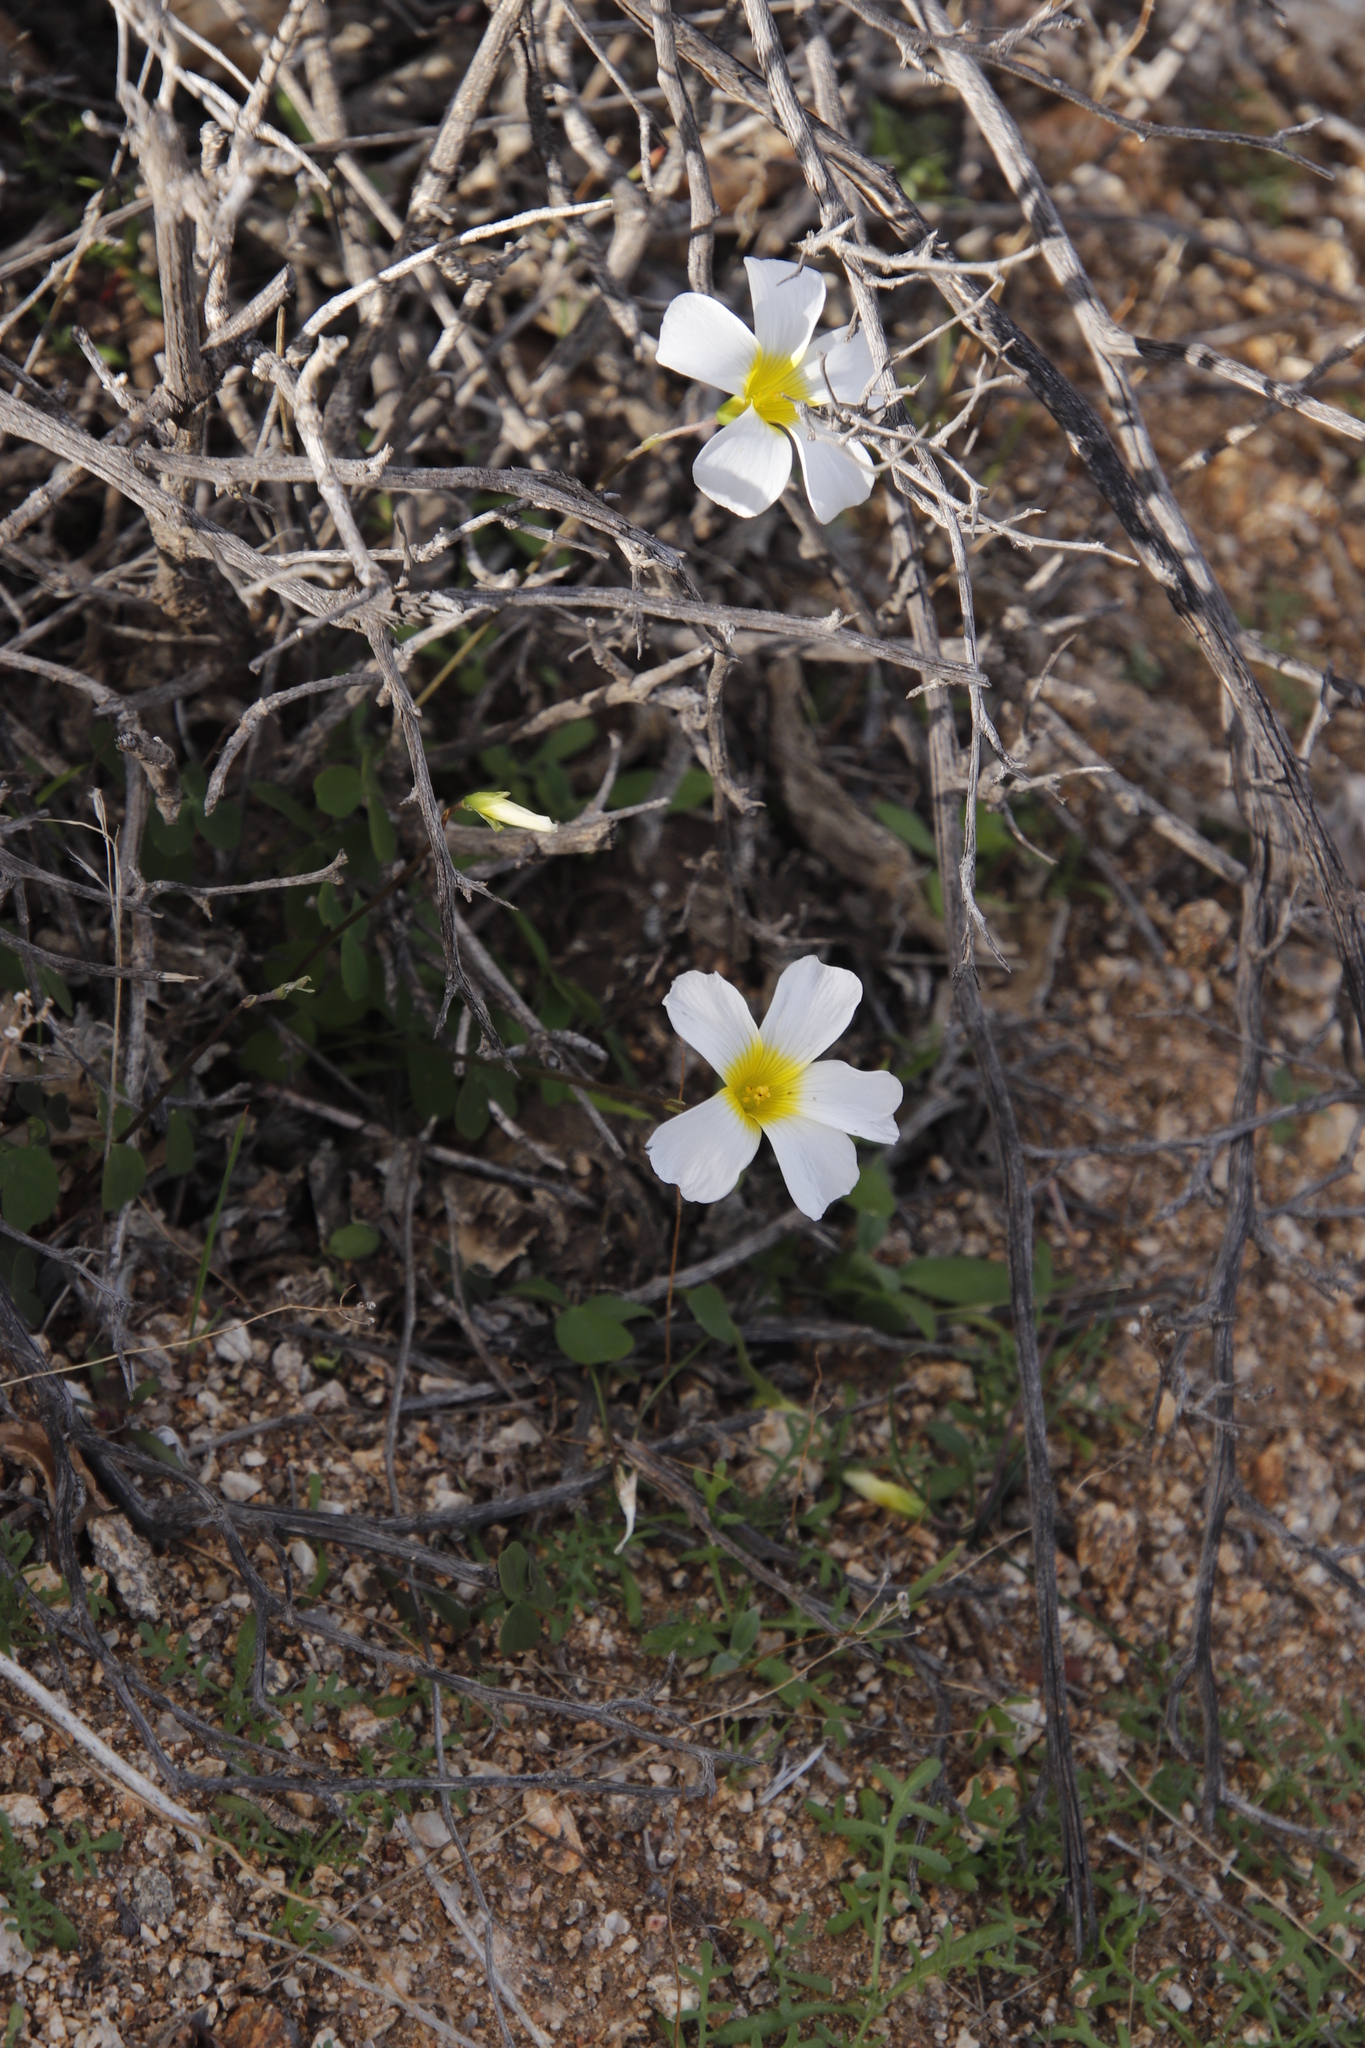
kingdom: Plantae
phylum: Tracheophyta
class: Magnoliopsida
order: Oxalidales
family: Oxalidaceae
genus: Oxalis
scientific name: Oxalis obtusa
